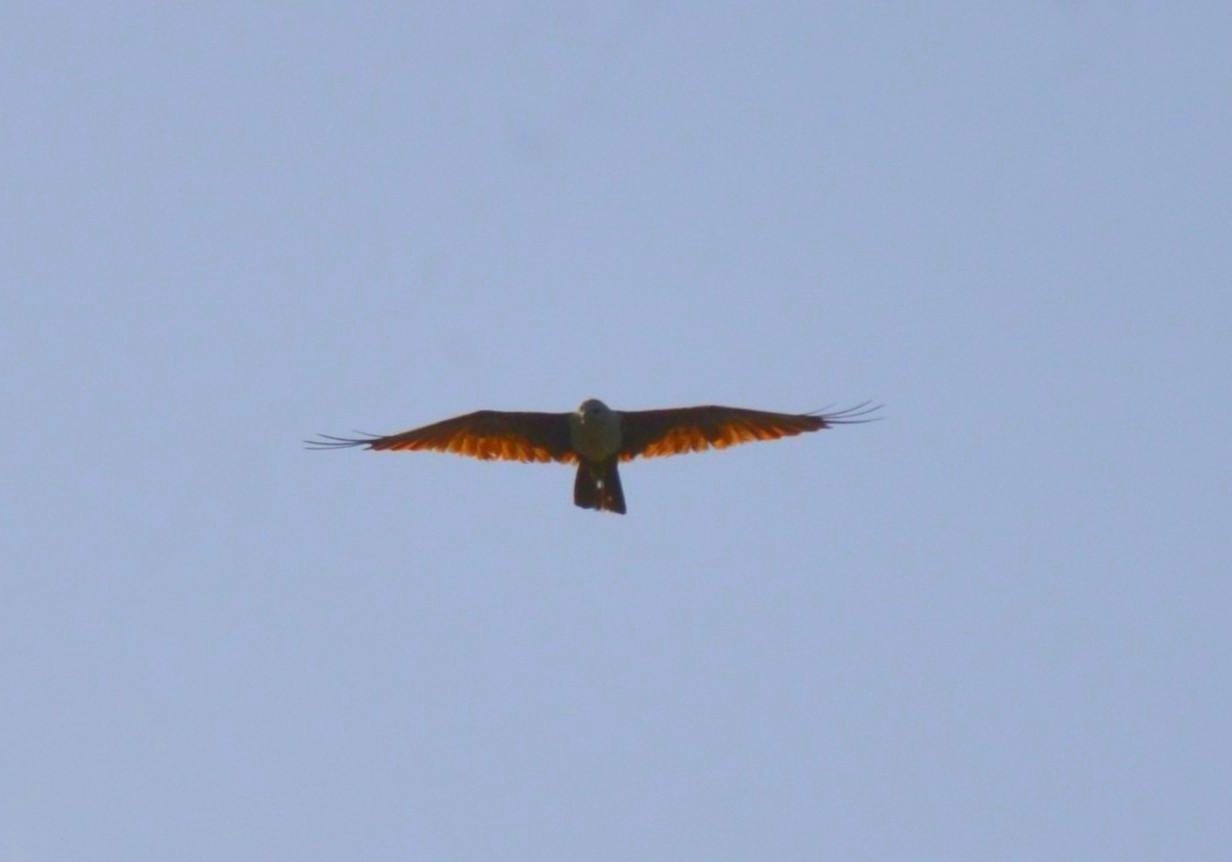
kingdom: Animalia
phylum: Chordata
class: Aves
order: Accipitriformes
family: Accipitridae
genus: Haliastur
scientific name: Haliastur indus
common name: Brahminy kite
